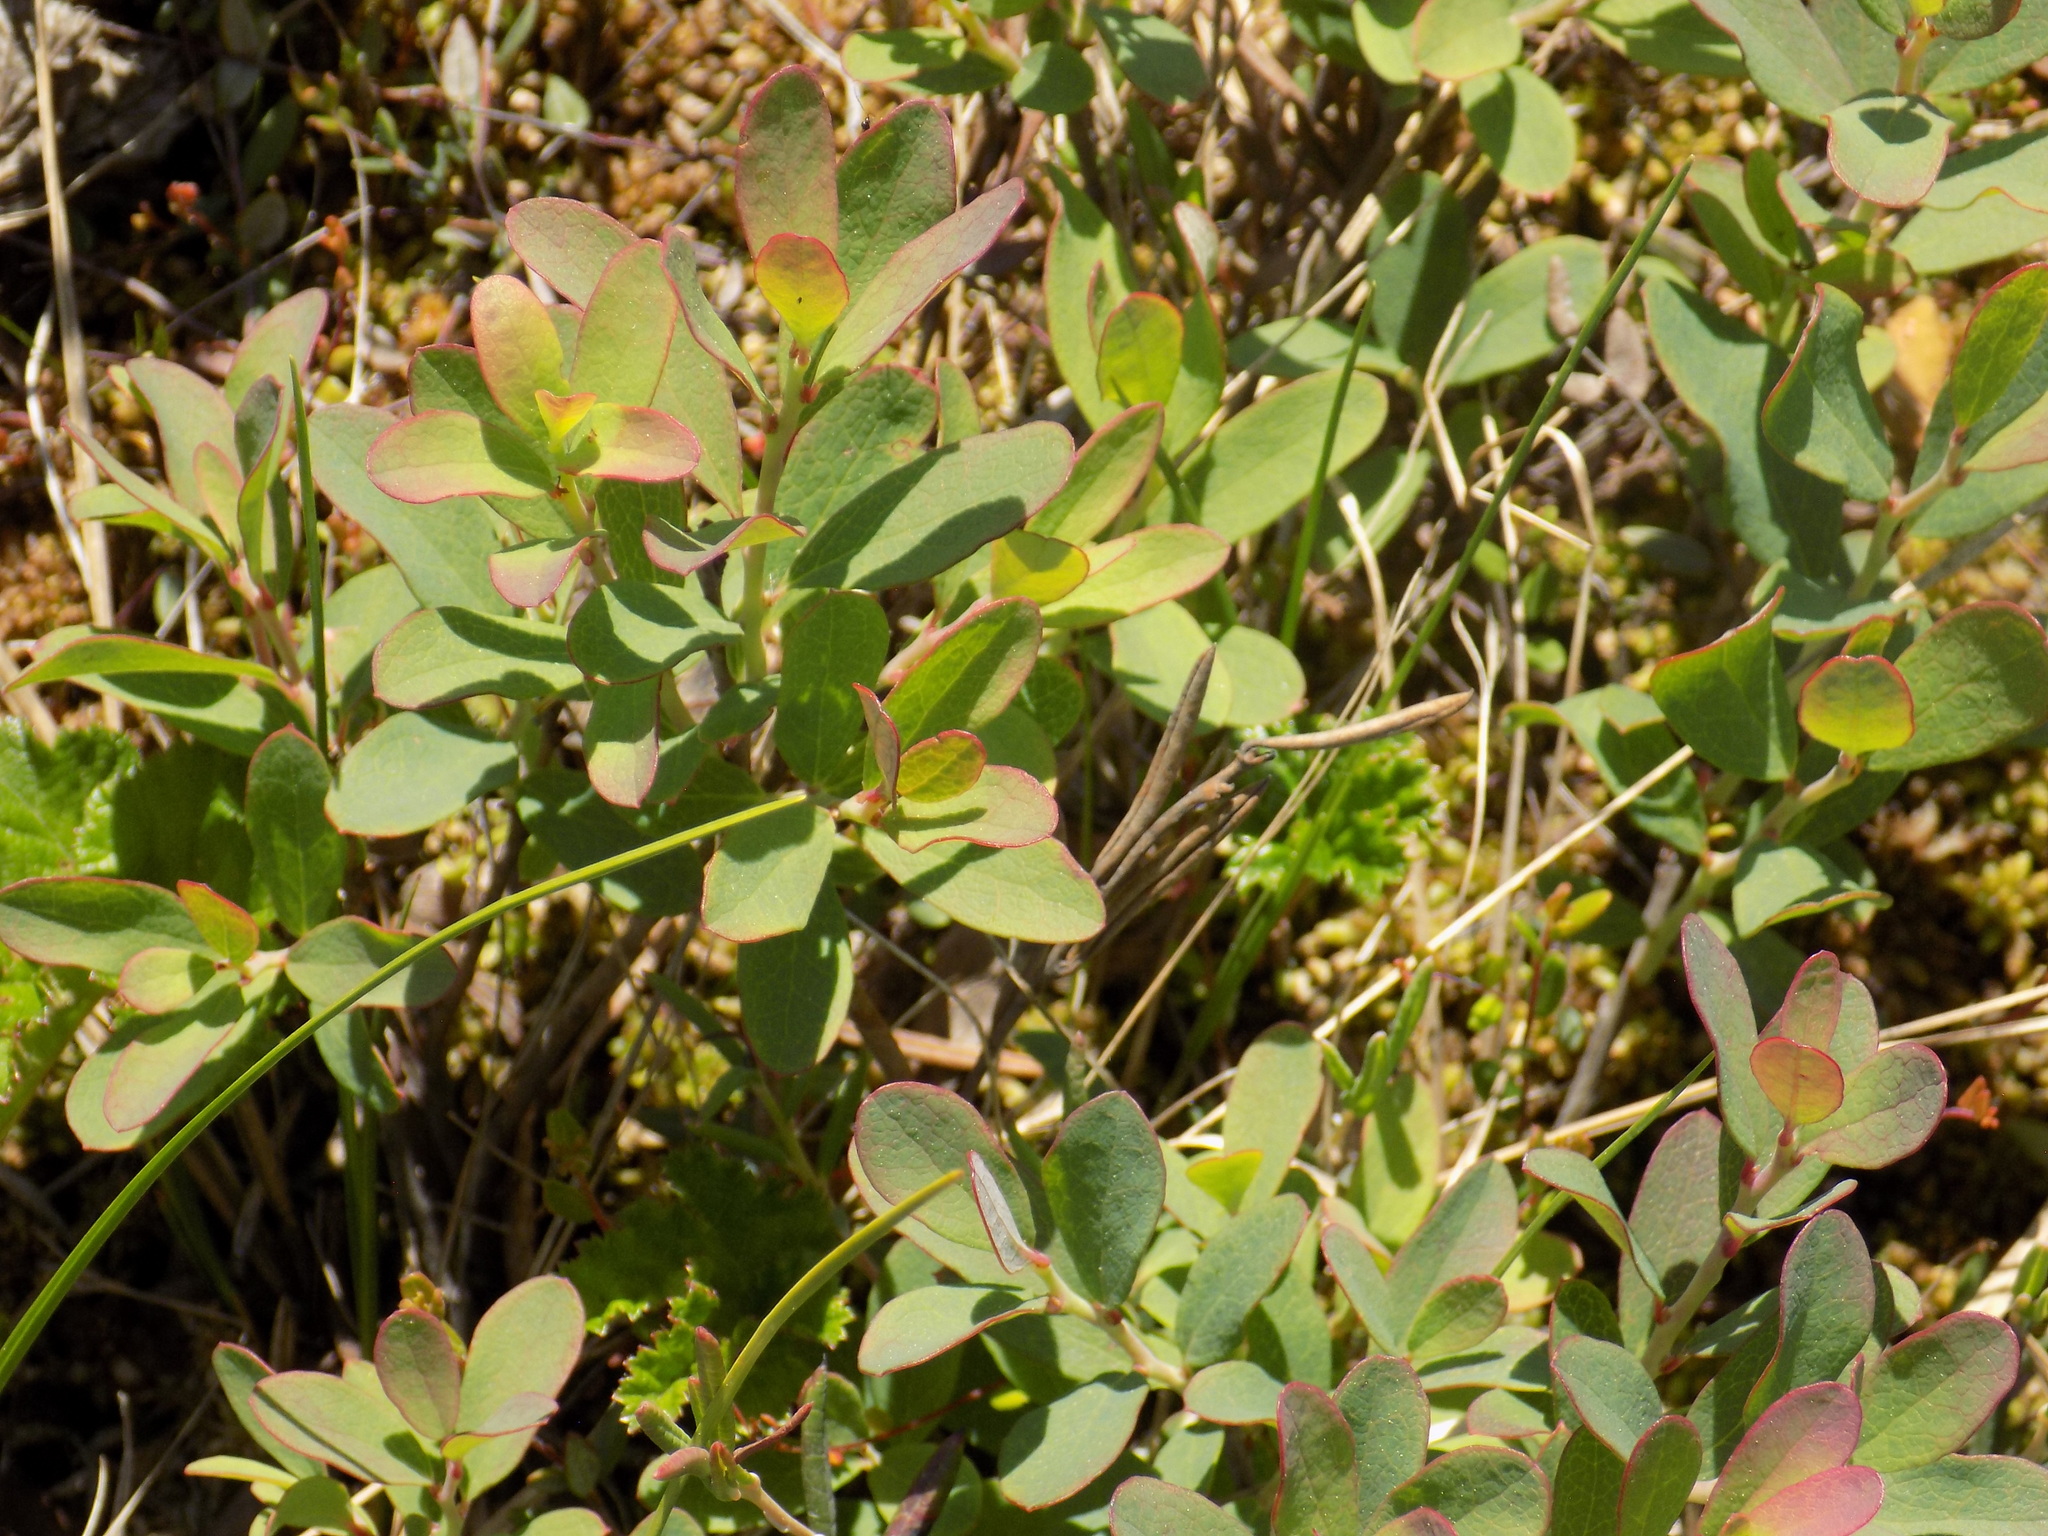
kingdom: Plantae
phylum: Tracheophyta
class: Magnoliopsida
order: Ericales
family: Ericaceae
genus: Vaccinium
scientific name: Vaccinium uliginosum
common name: Bog bilberry
